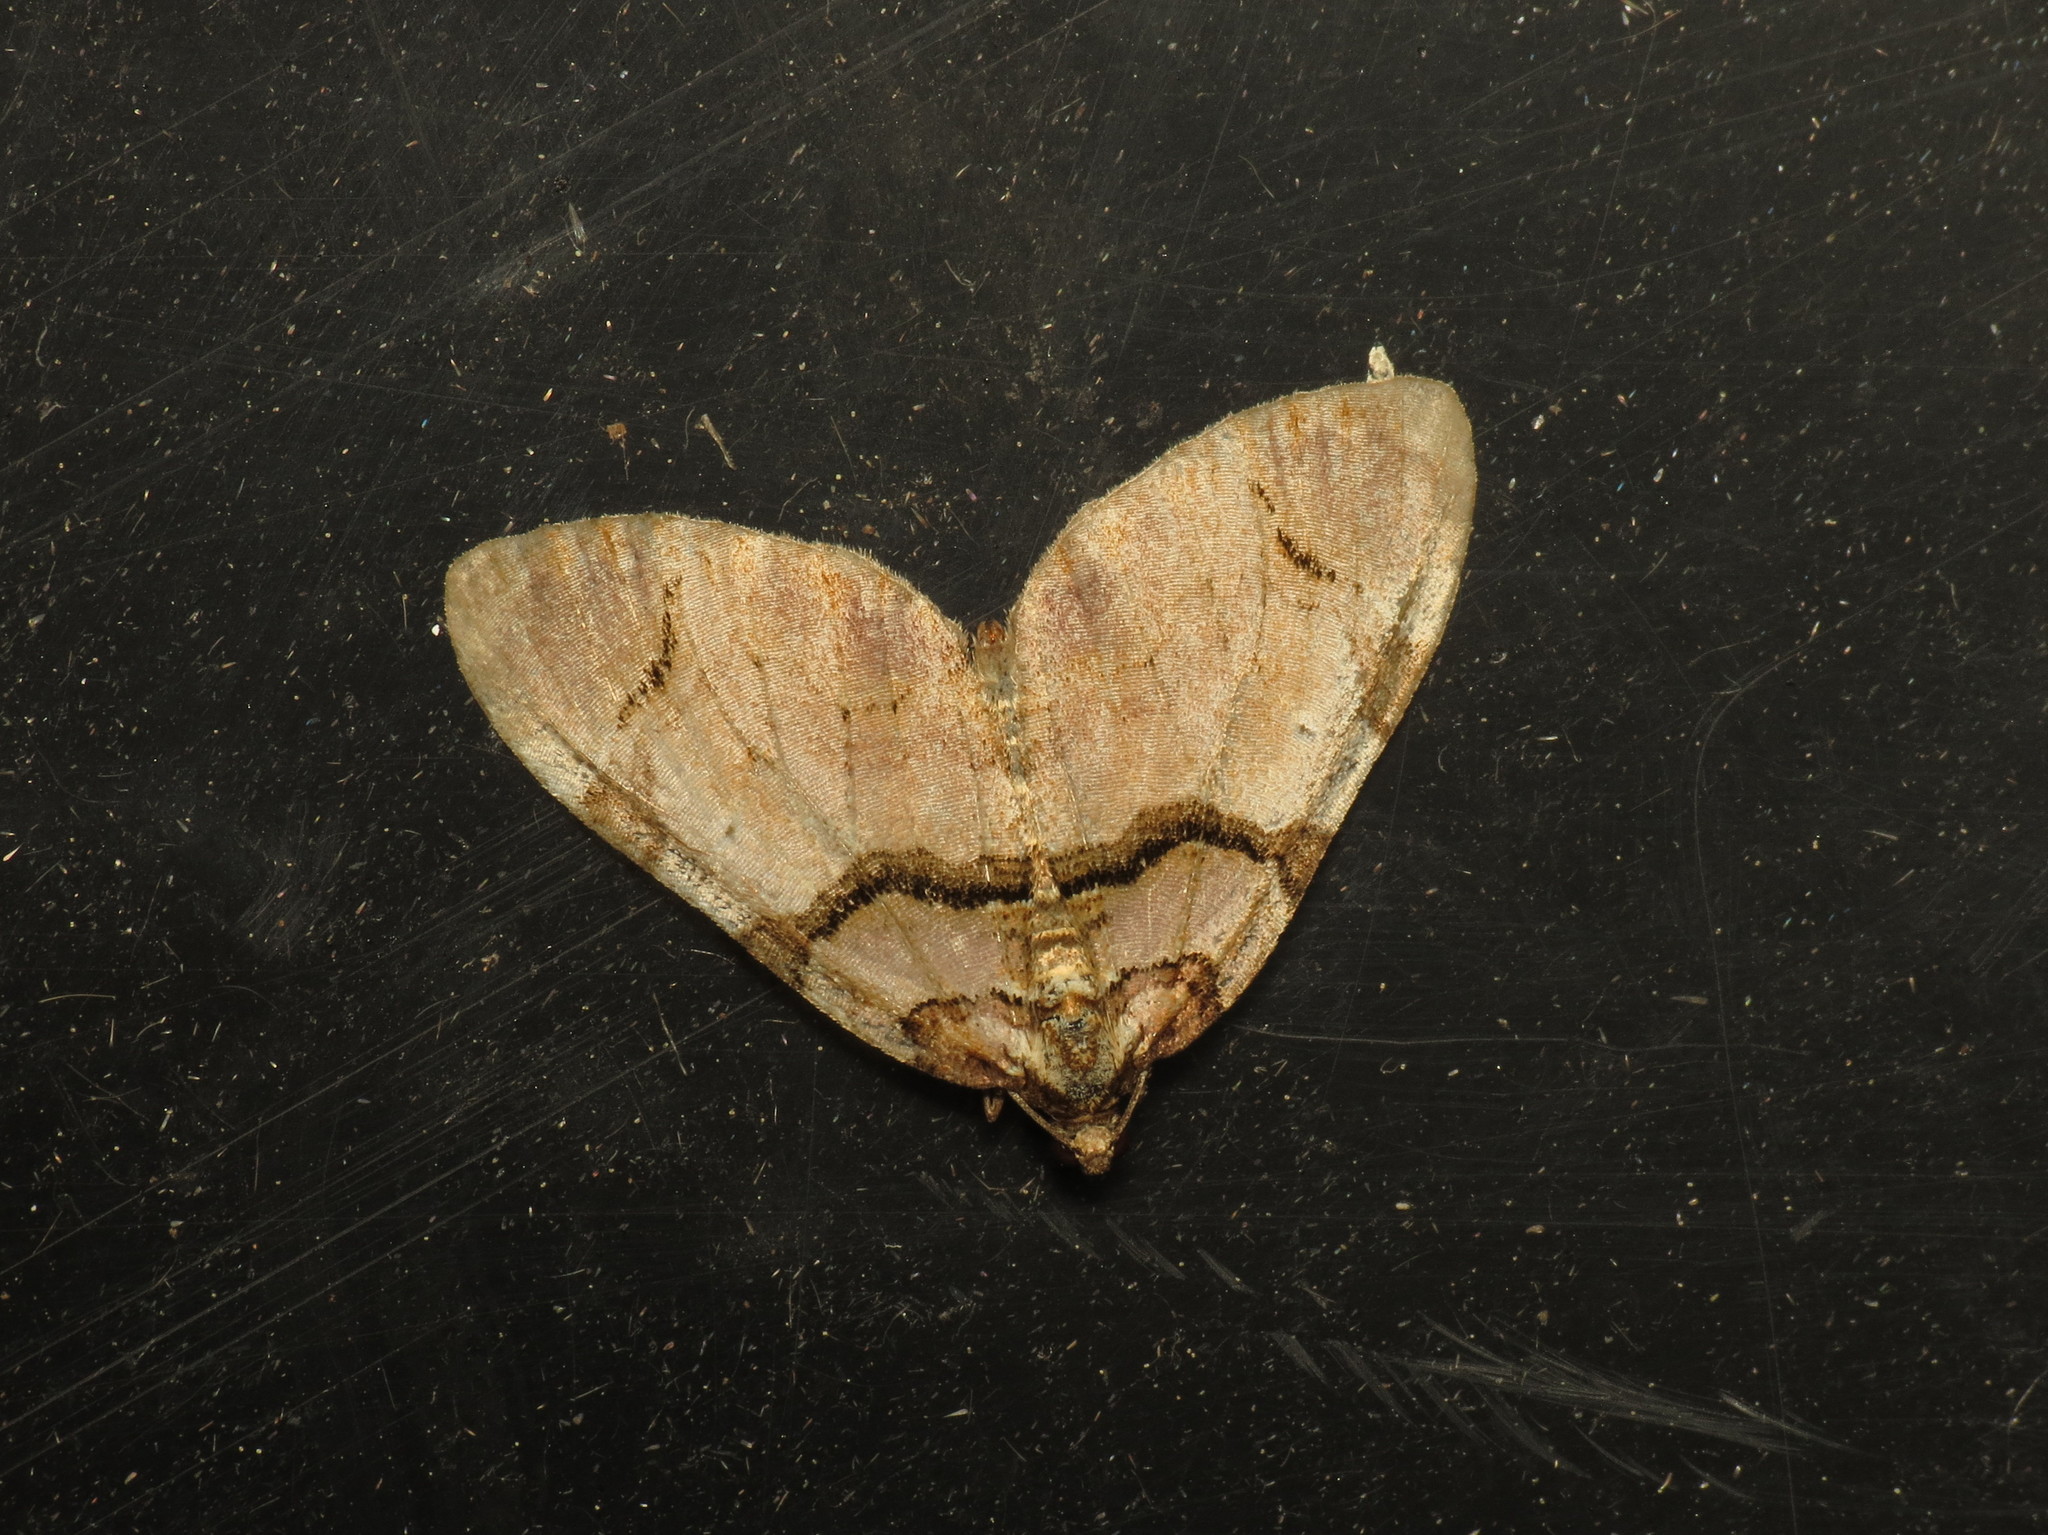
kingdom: Animalia
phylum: Arthropoda
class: Insecta
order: Lepidoptera
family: Geometridae
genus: Anticlea
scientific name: Anticlea derivata
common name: Streamer
